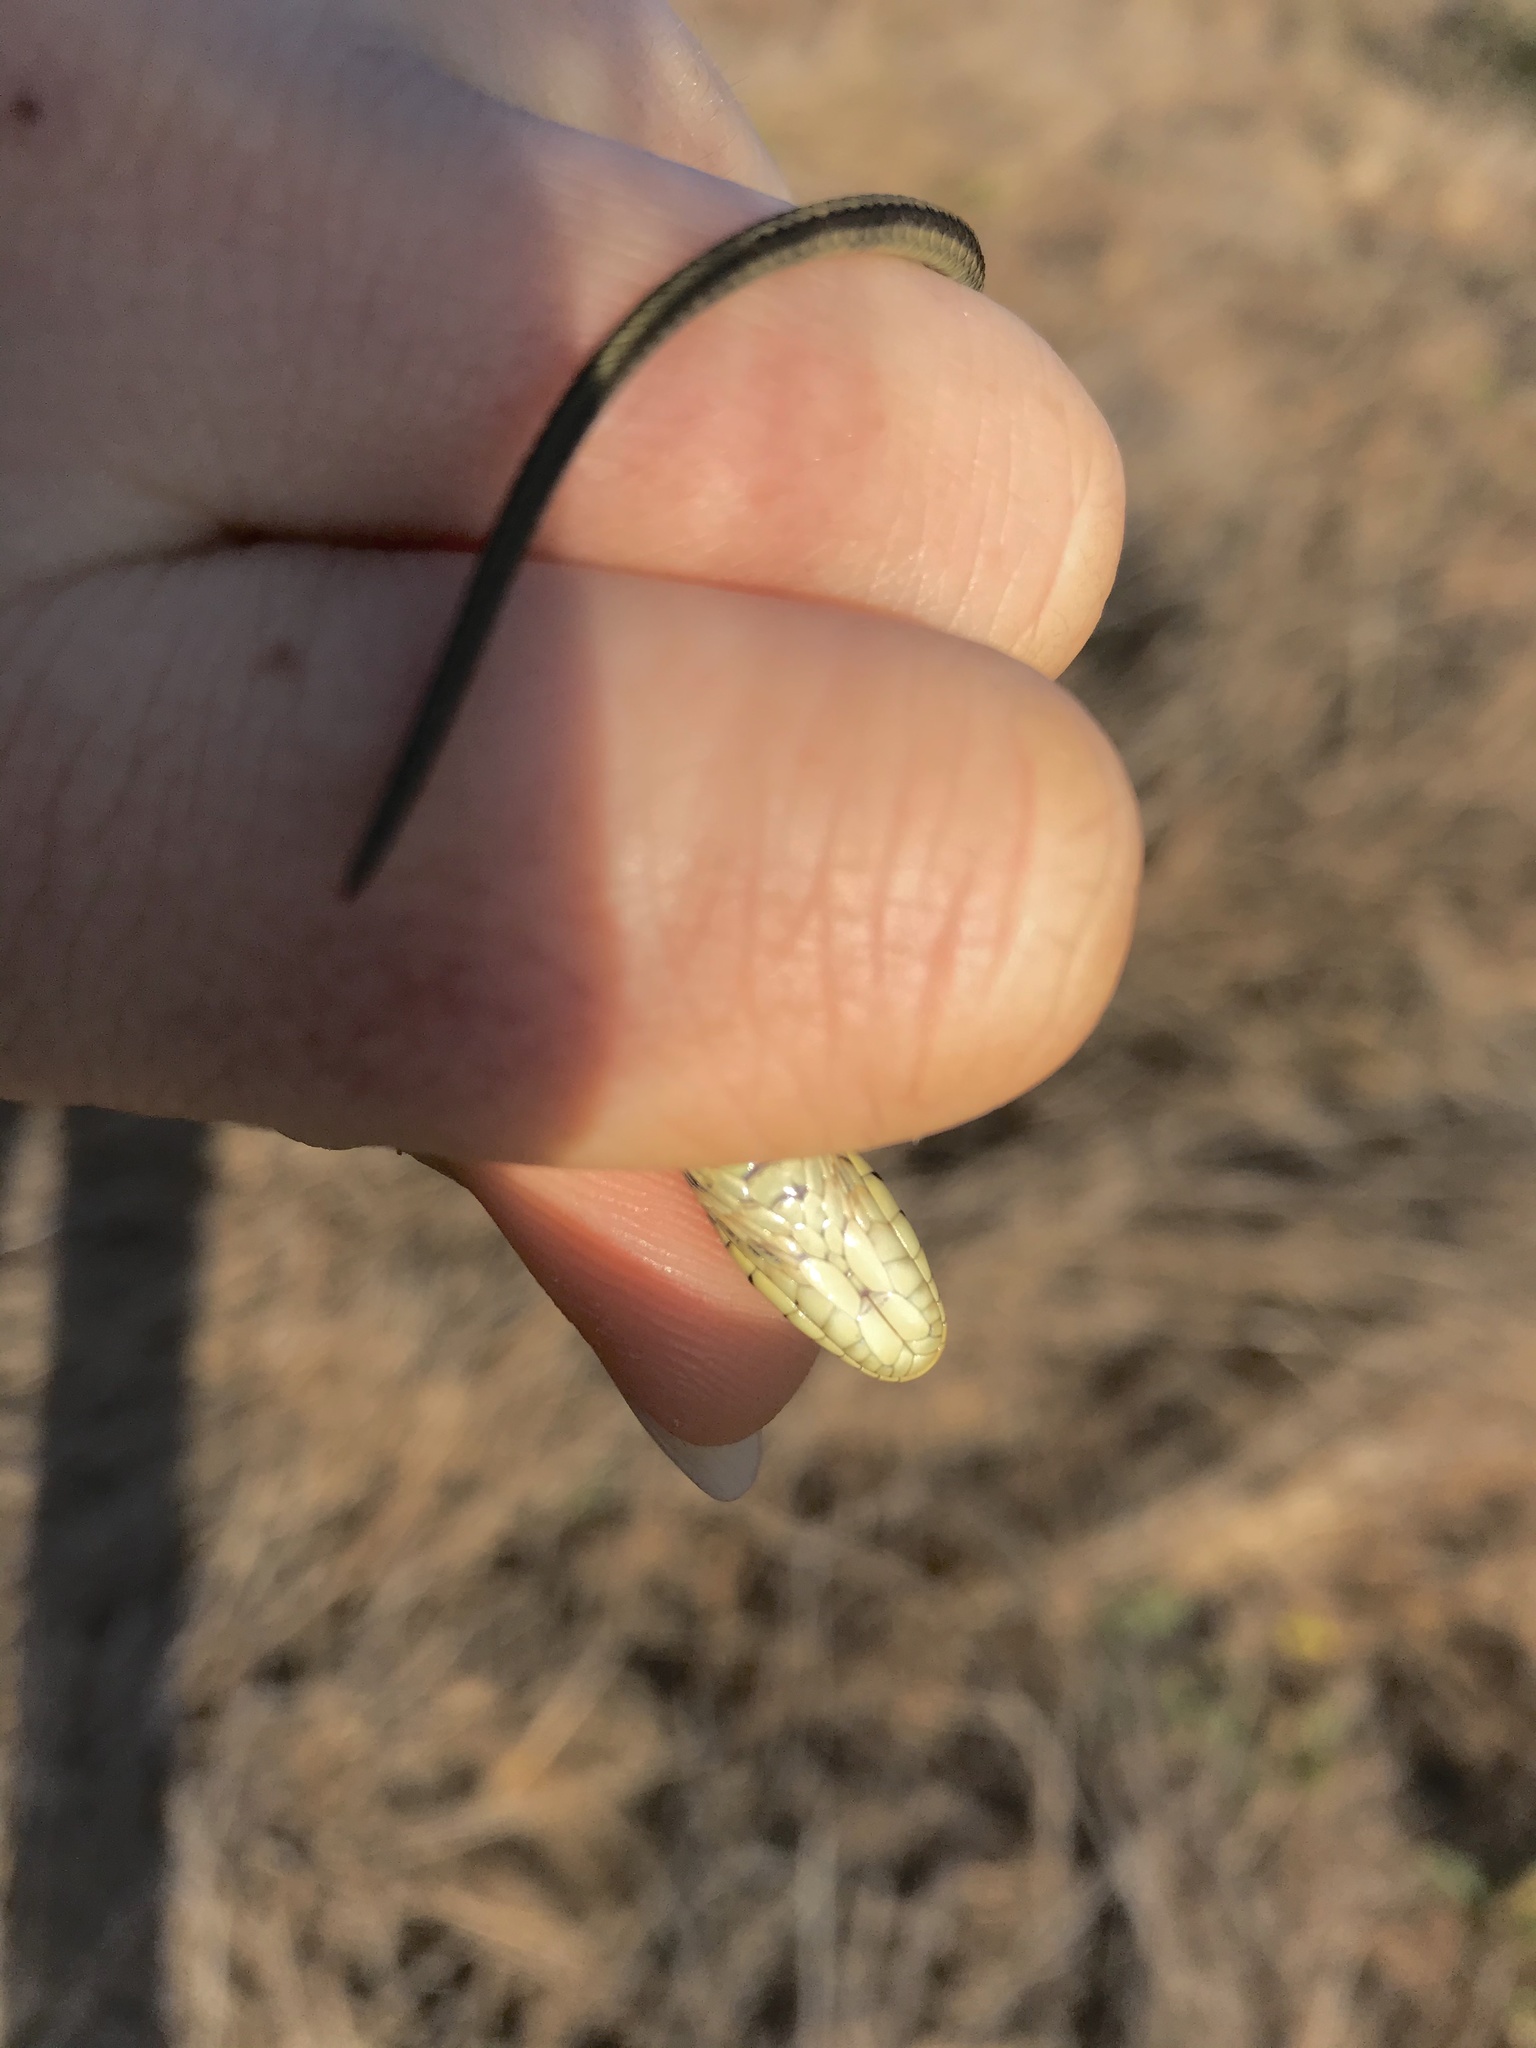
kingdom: Animalia
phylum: Chordata
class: Squamata
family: Colubridae
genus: Thamnophis
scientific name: Thamnophis elegans
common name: Western terrestrial garter snake
